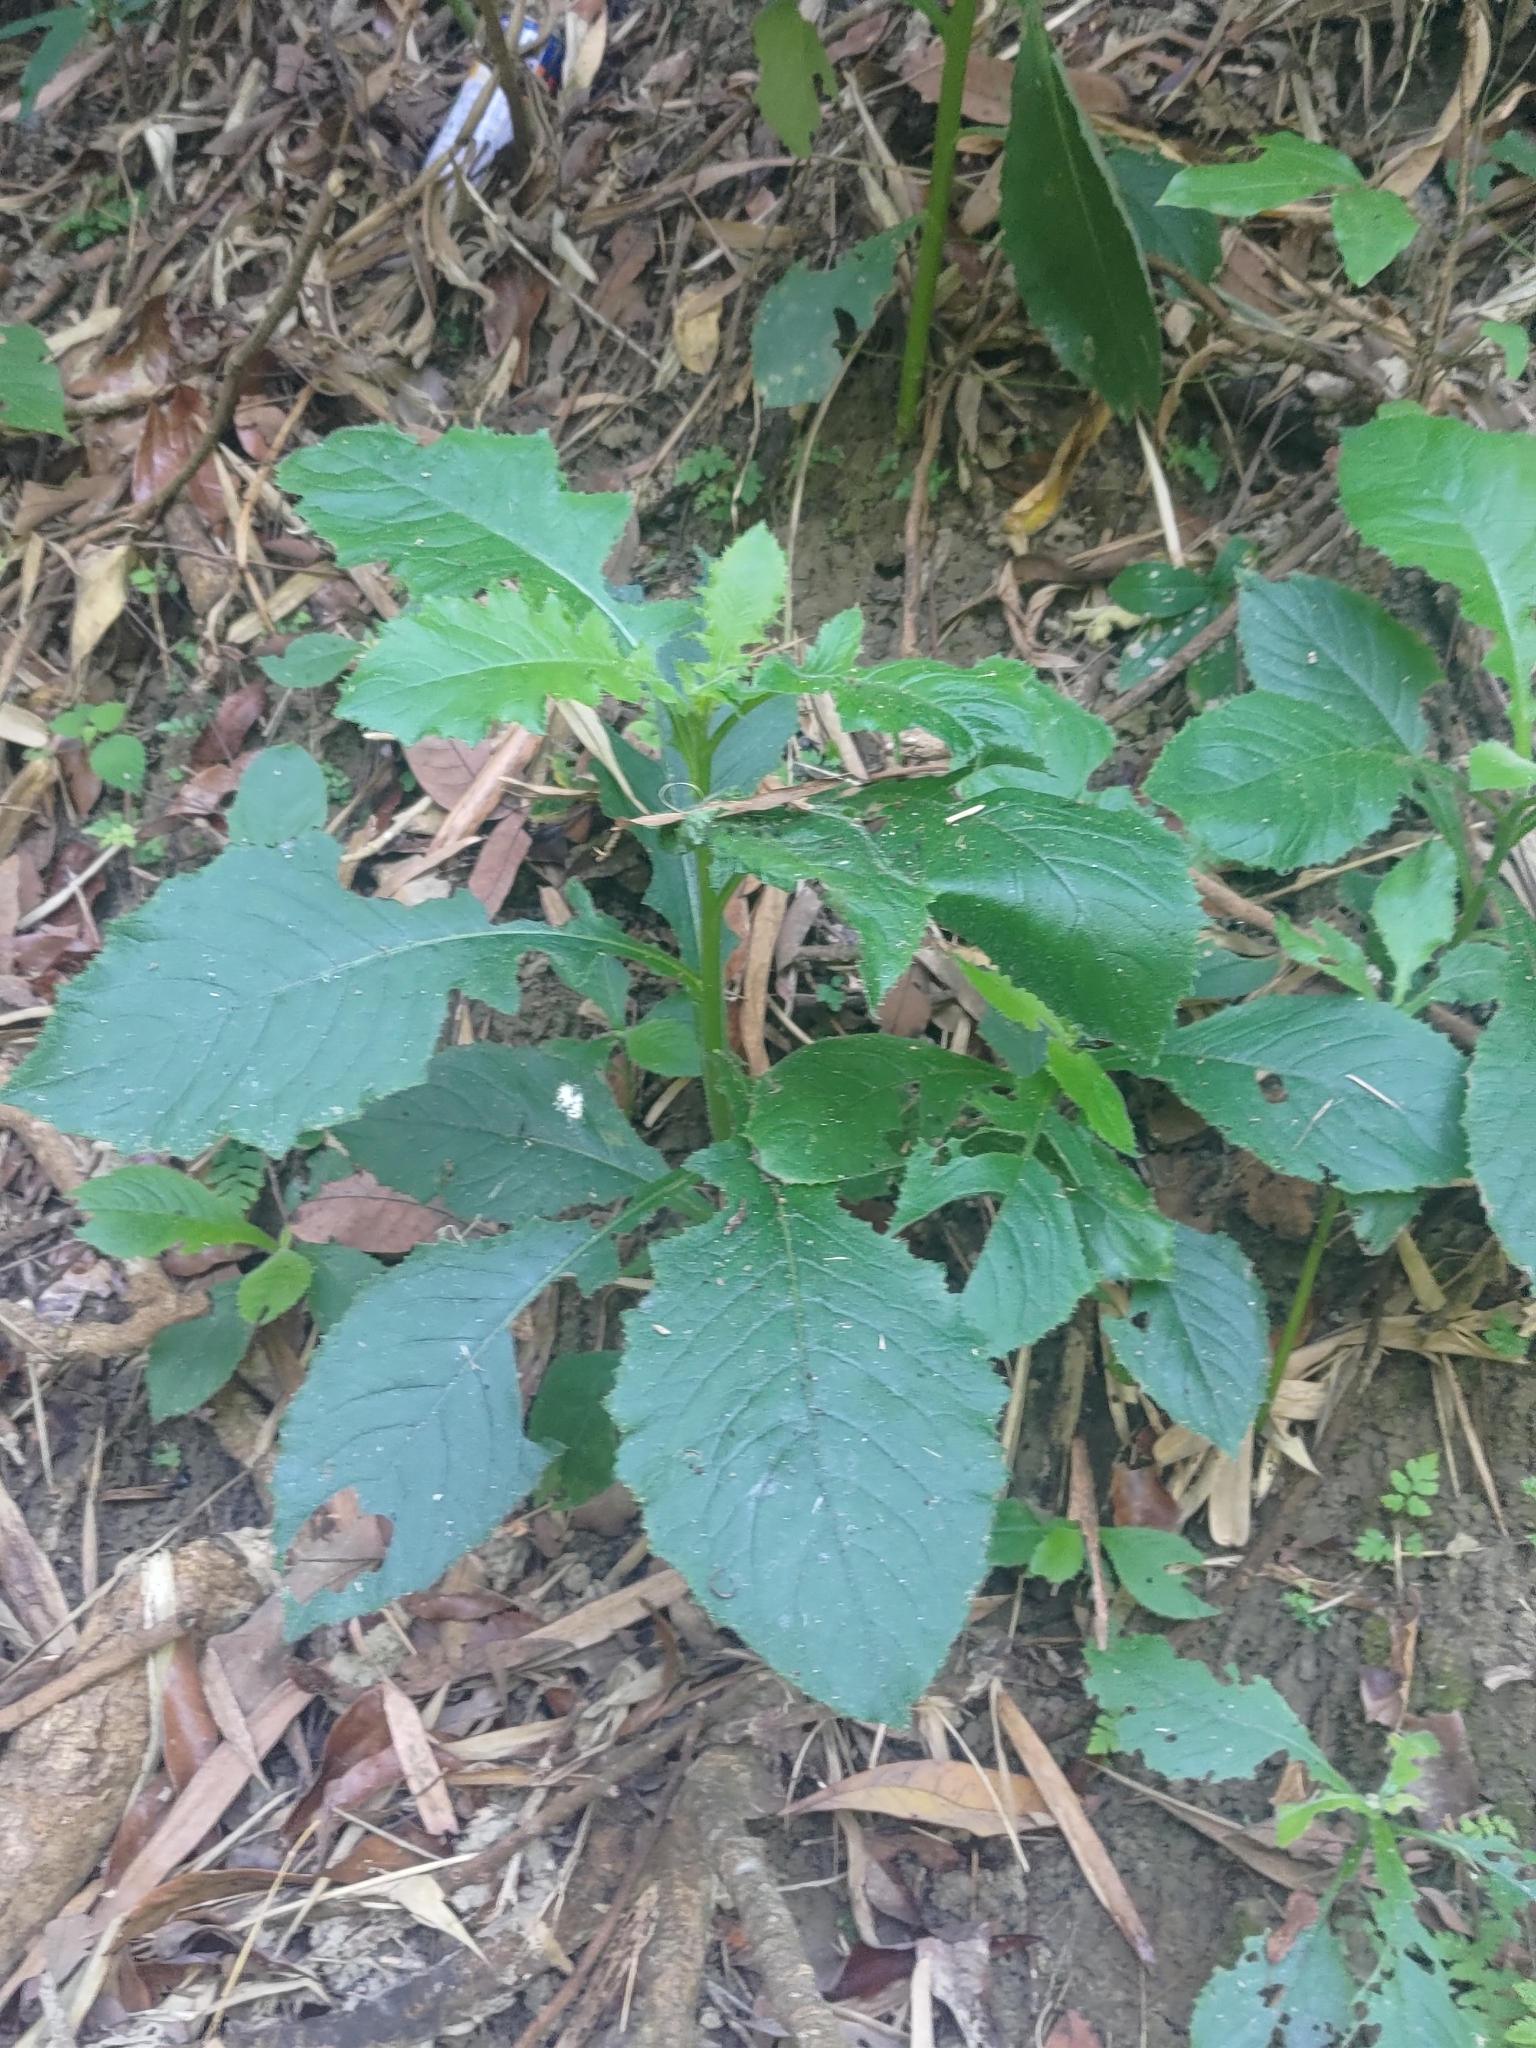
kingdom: Plantae
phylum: Tracheophyta
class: Magnoliopsida
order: Asterales
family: Asteraceae
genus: Blumea
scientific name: Blumea sinuata
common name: Cutleaf false oxtongue
